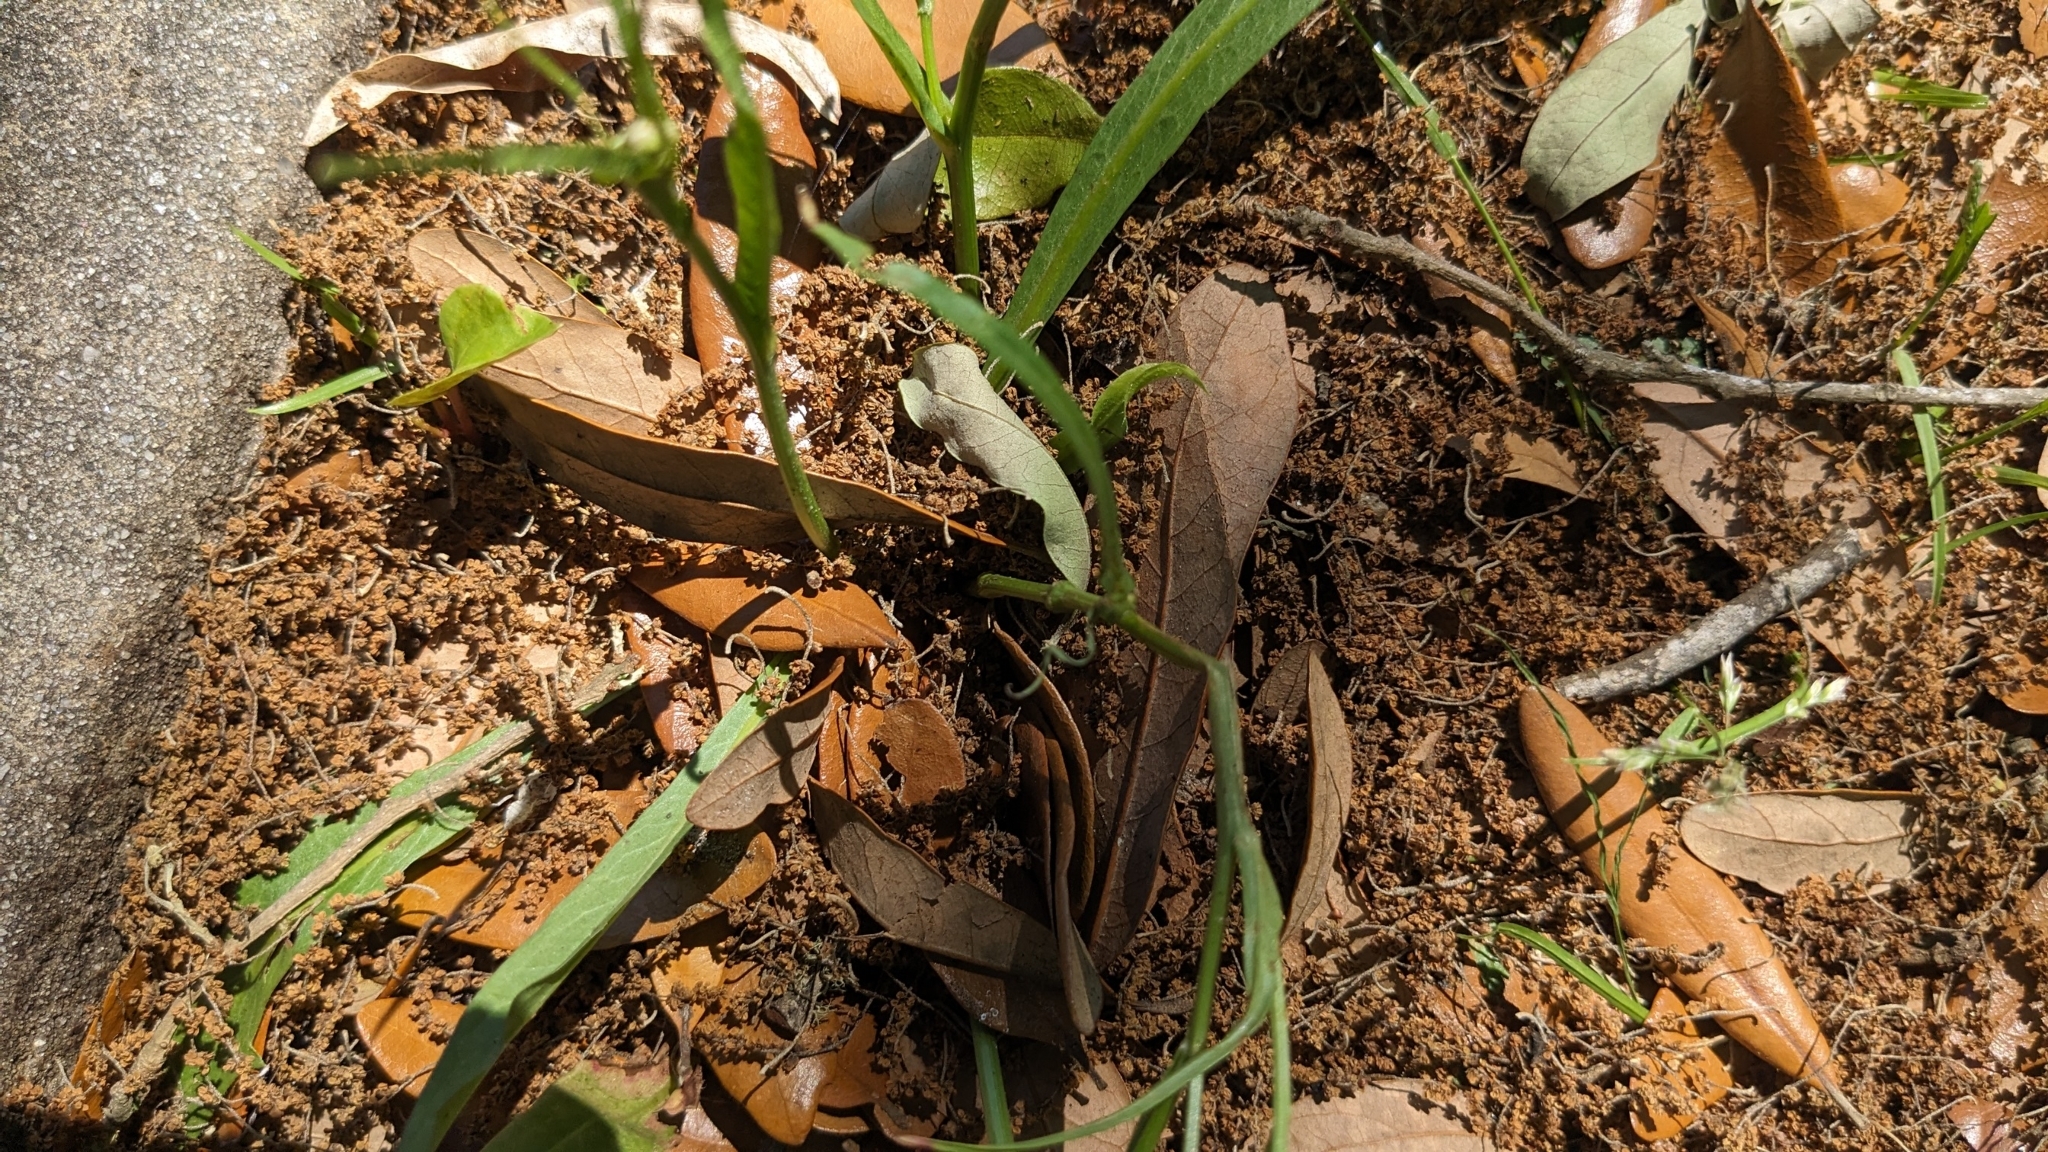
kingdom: Plantae
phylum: Tracheophyta
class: Magnoliopsida
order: Asterales
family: Asteraceae
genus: Hypochaeris
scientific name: Hypochaeris albiflora
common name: White flatweed
